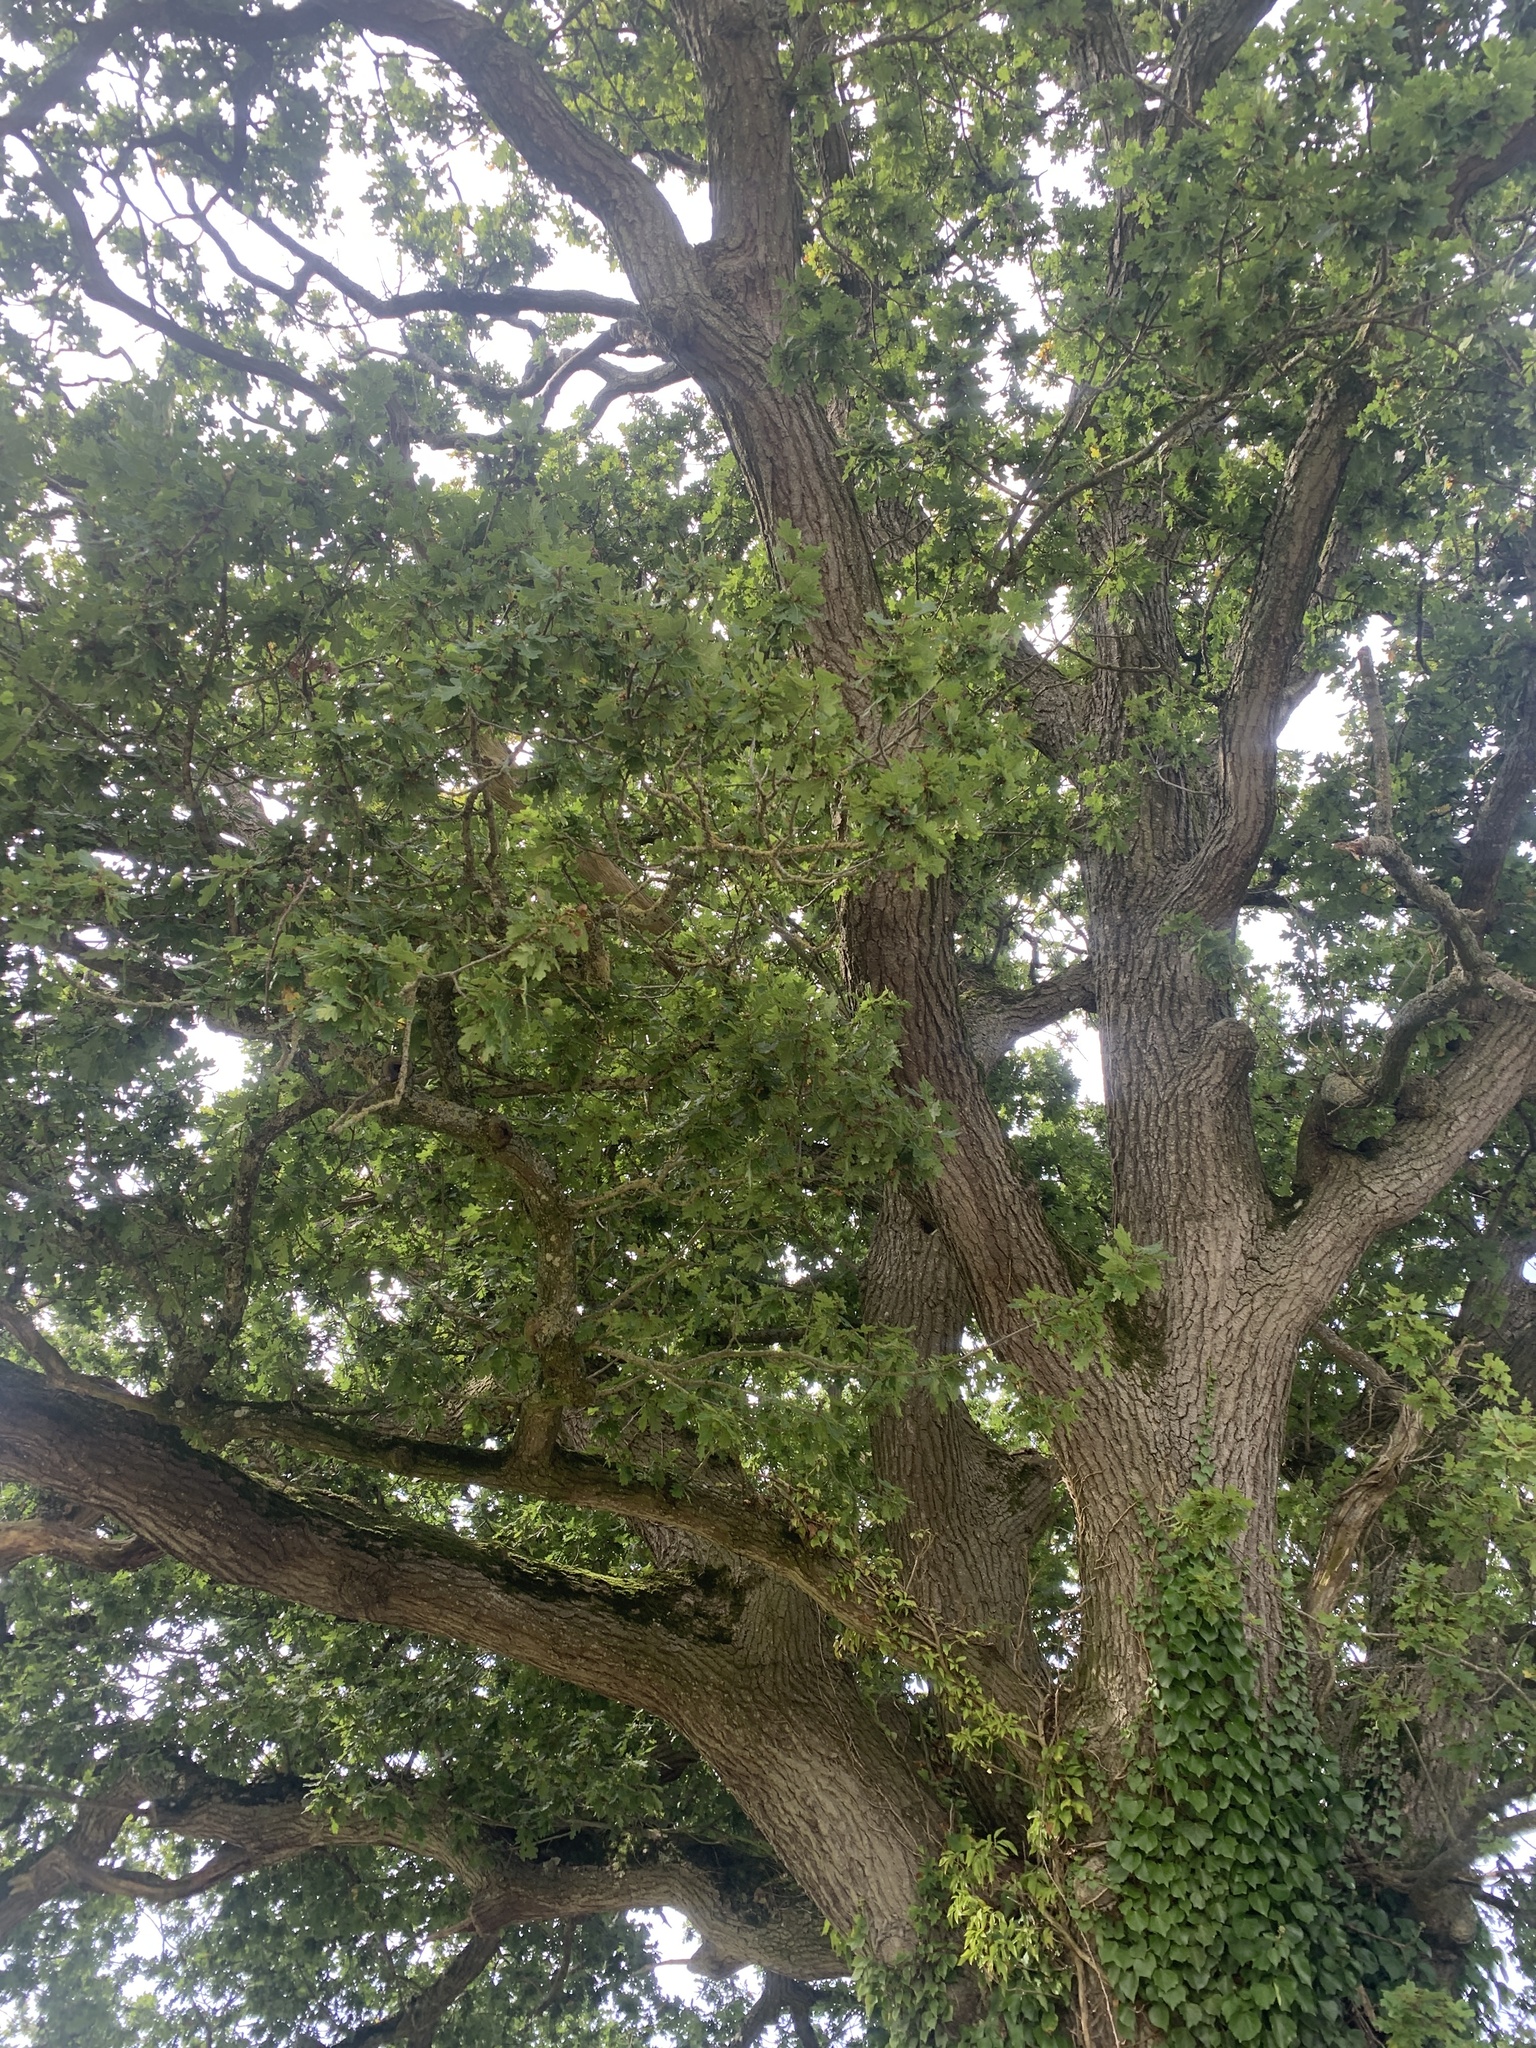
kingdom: Plantae
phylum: Tracheophyta
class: Magnoliopsida
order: Fagales
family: Fagaceae
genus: Quercus
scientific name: Quercus robur
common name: Pedunculate oak
